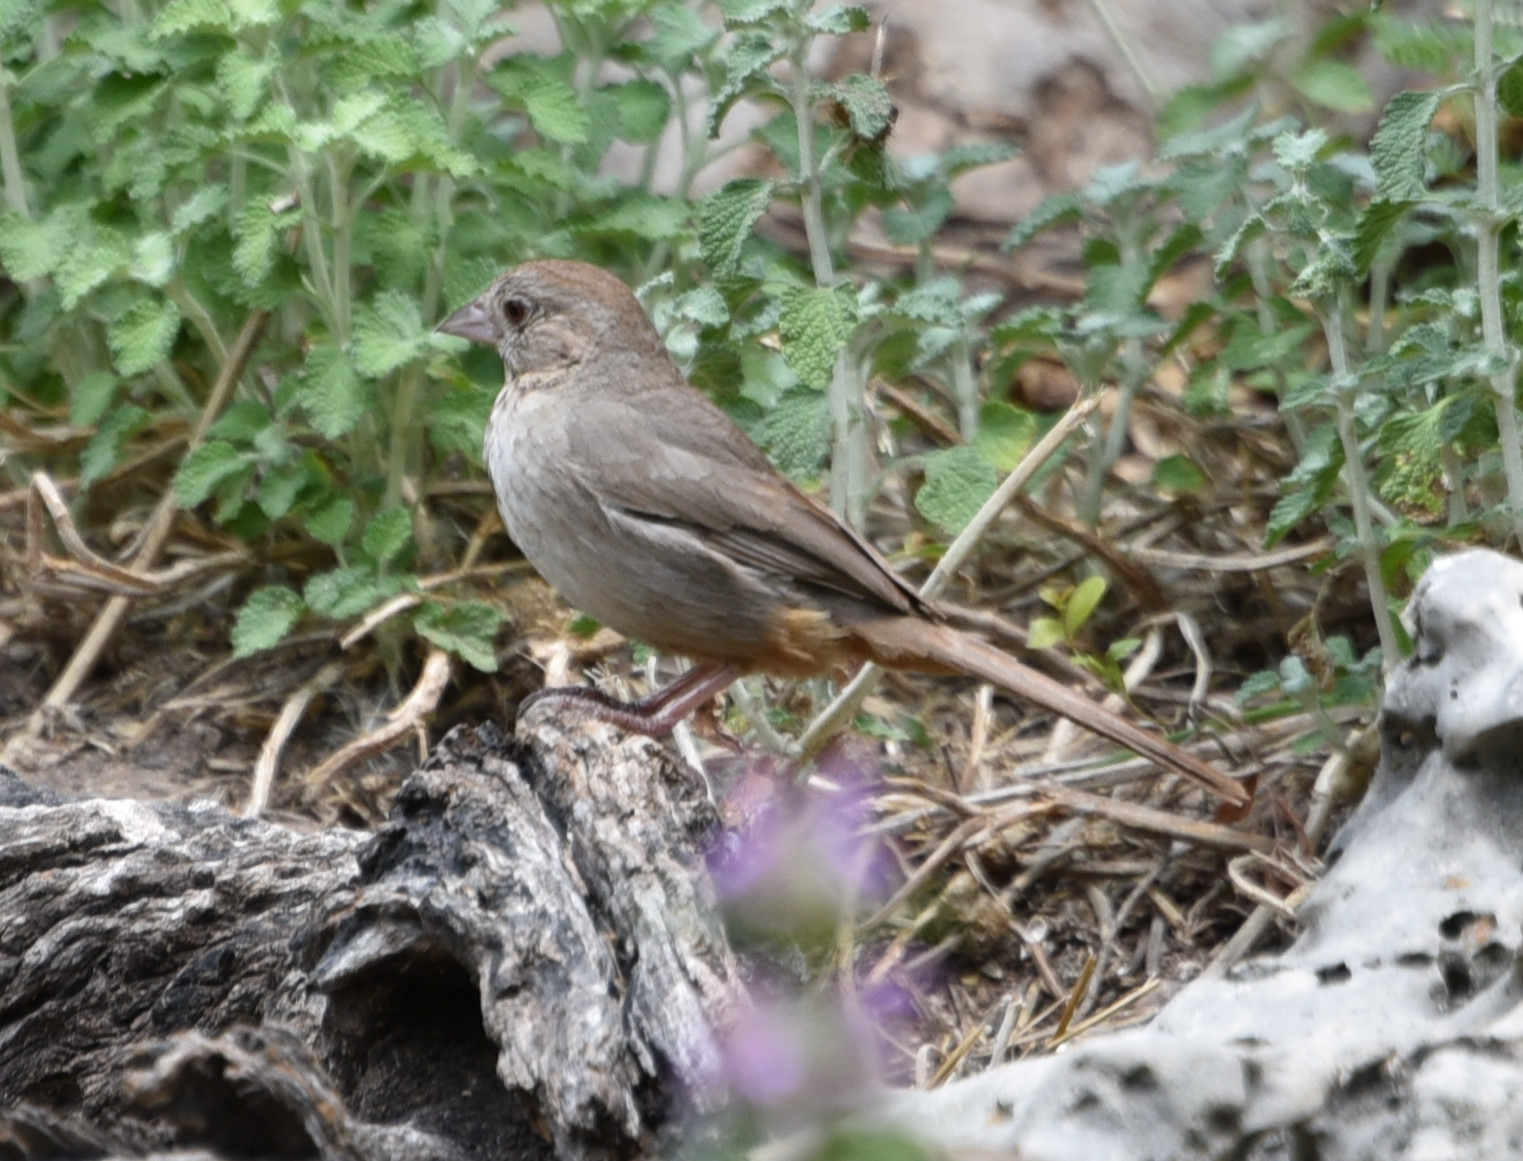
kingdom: Animalia
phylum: Chordata
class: Aves
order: Passeriformes
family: Passerellidae
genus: Melozone
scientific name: Melozone fusca
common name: Canyon towhee
